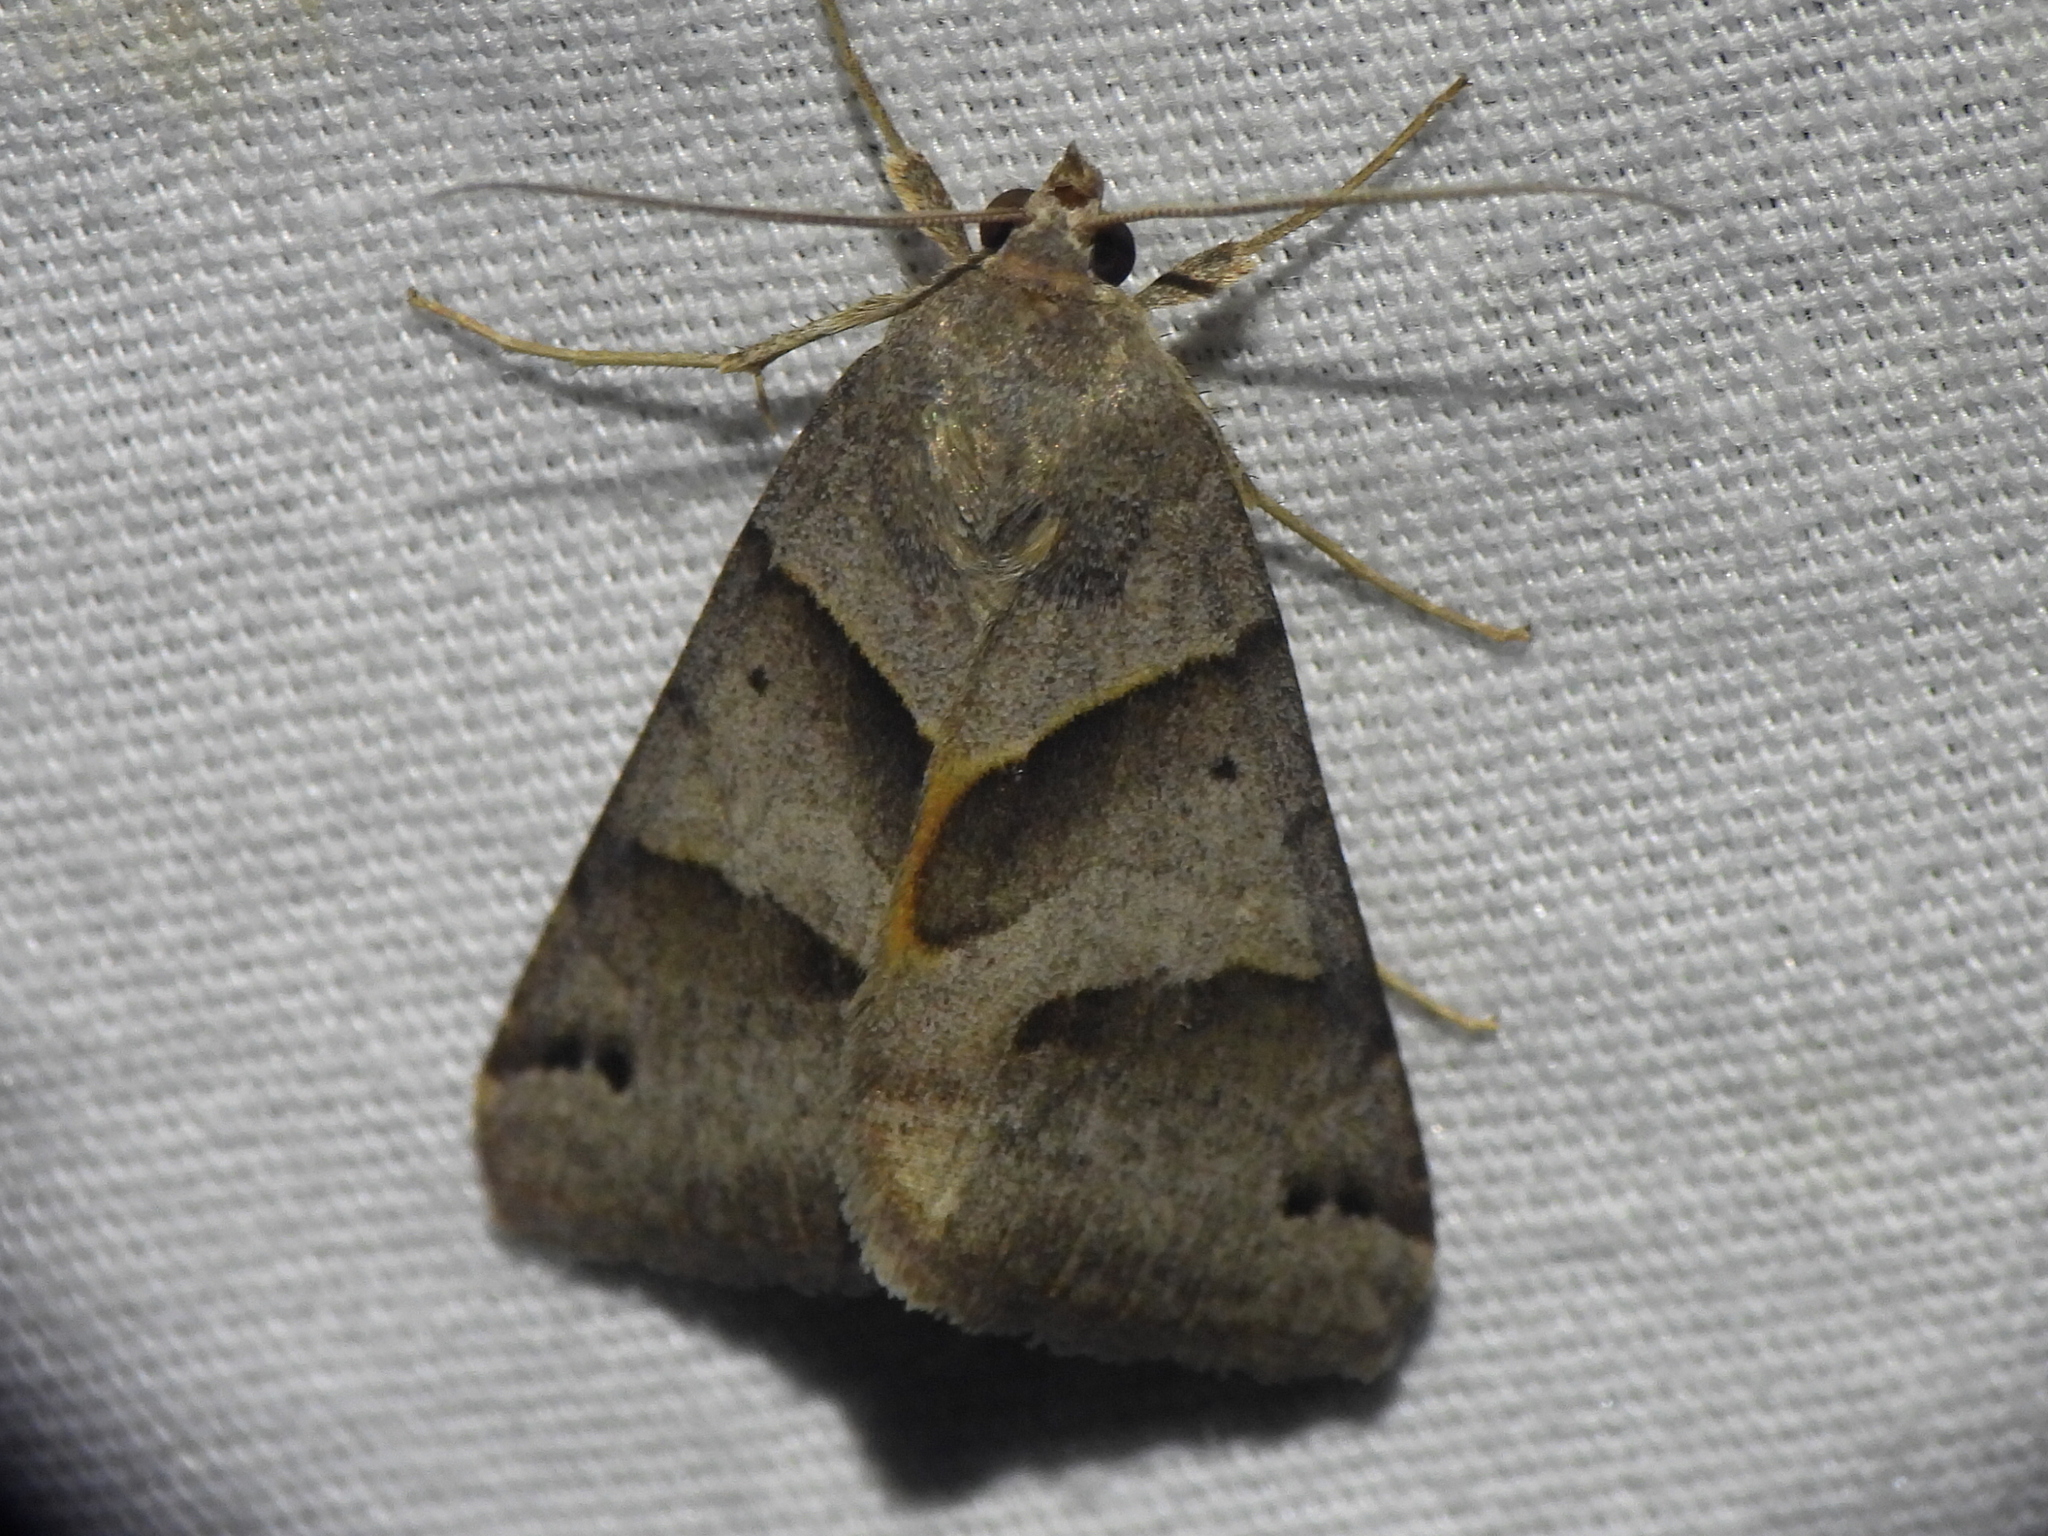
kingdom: Animalia
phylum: Arthropoda
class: Insecta
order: Lepidoptera
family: Erebidae
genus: Caenurgina
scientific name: Caenurgina erechtea
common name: Forage looper moth
